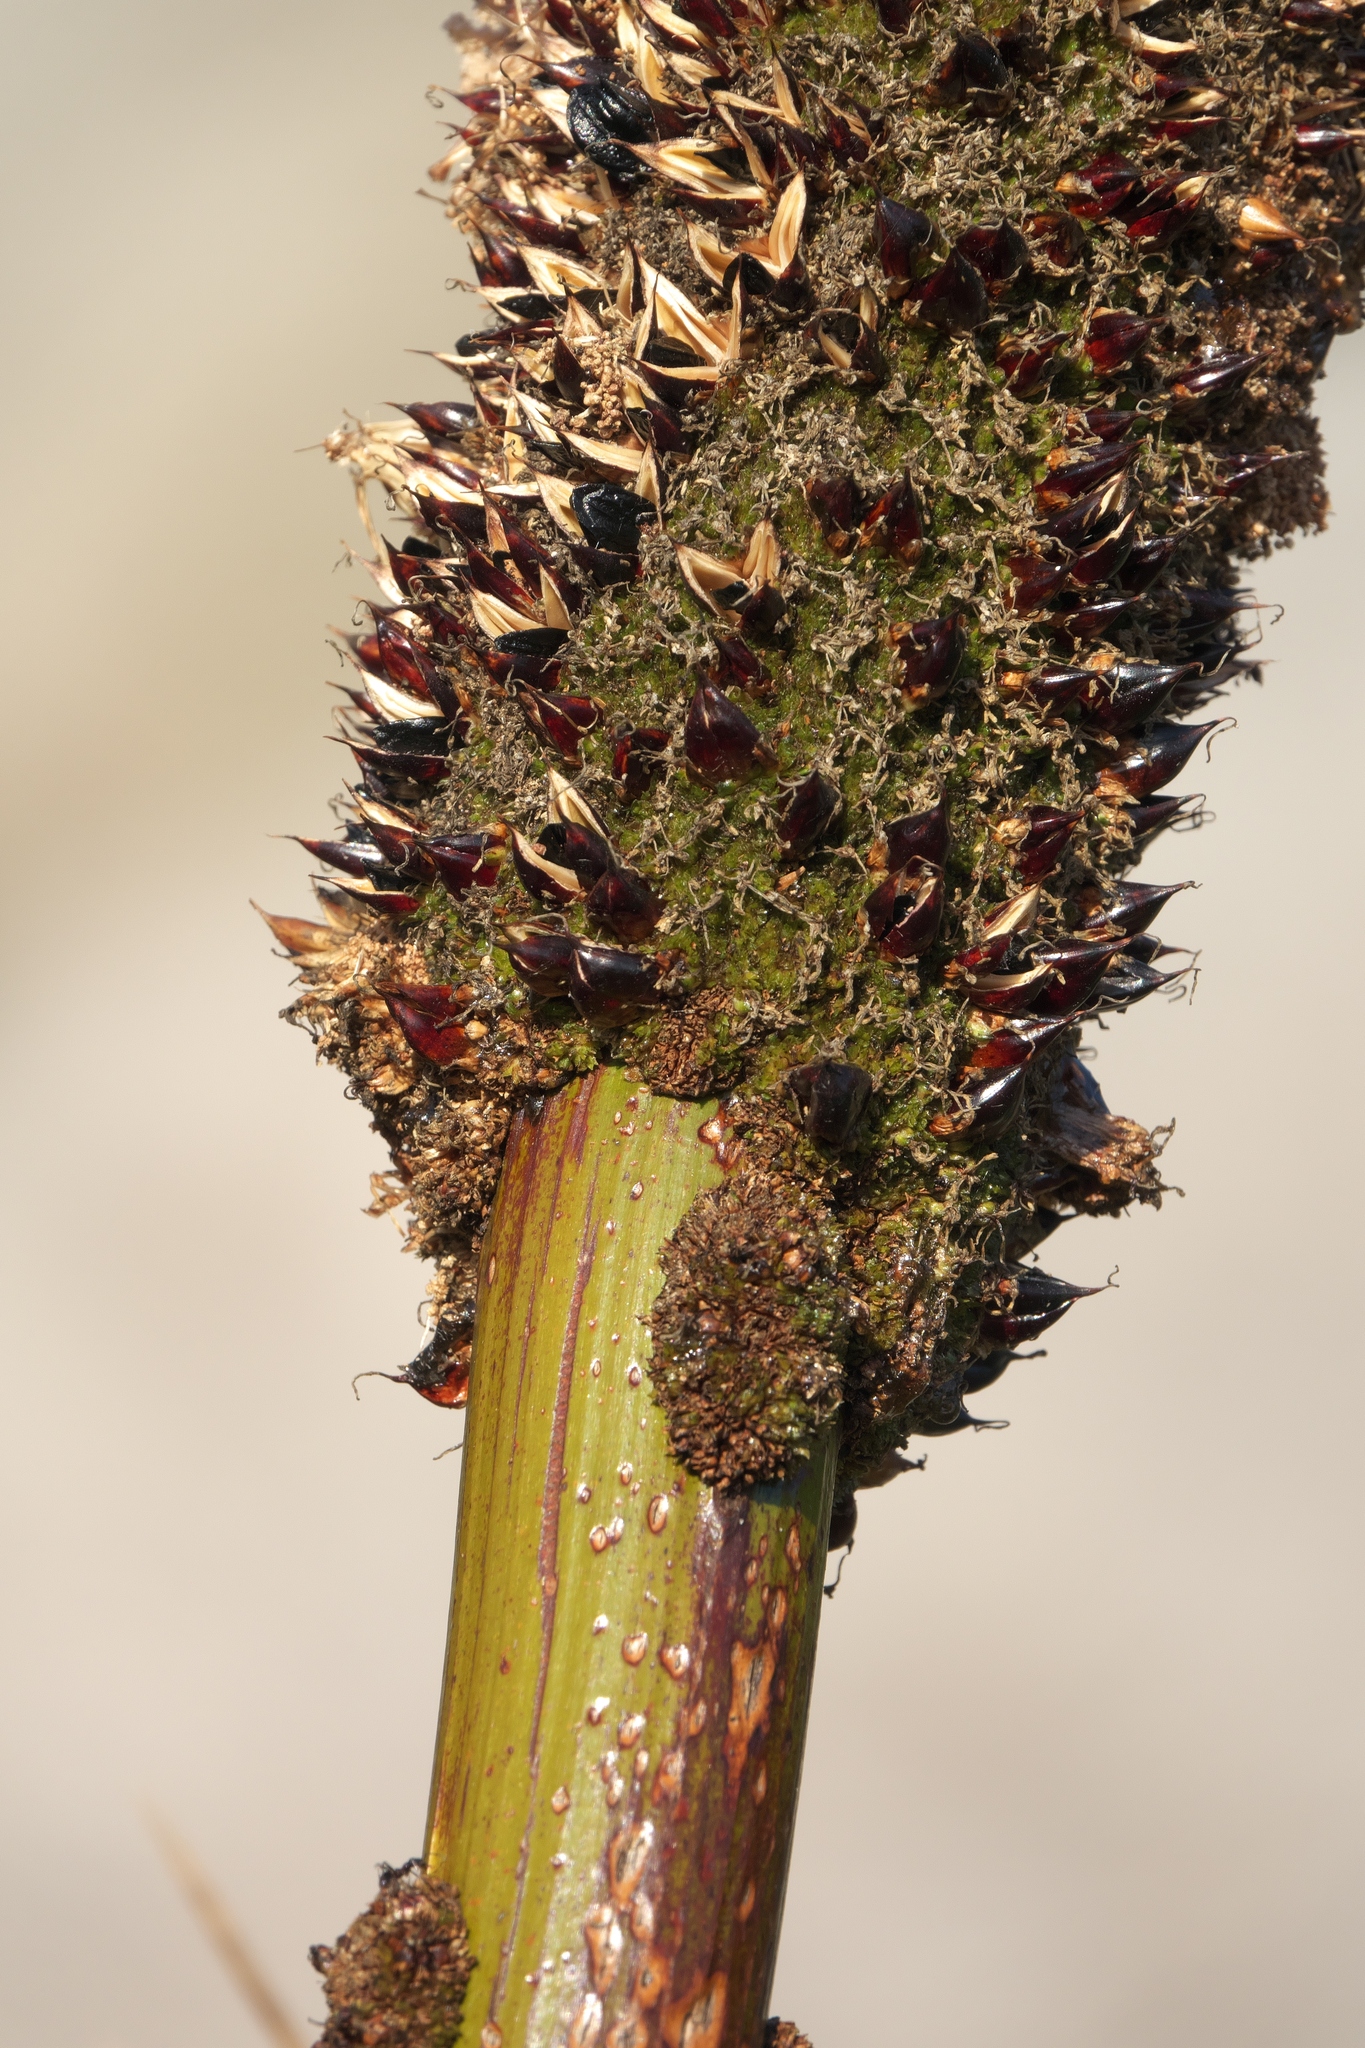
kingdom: Plantae
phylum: Tracheophyta
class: Liliopsida
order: Asparagales
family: Asphodelaceae
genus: Xanthorrhoea
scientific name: Xanthorrhoea platyphylla
